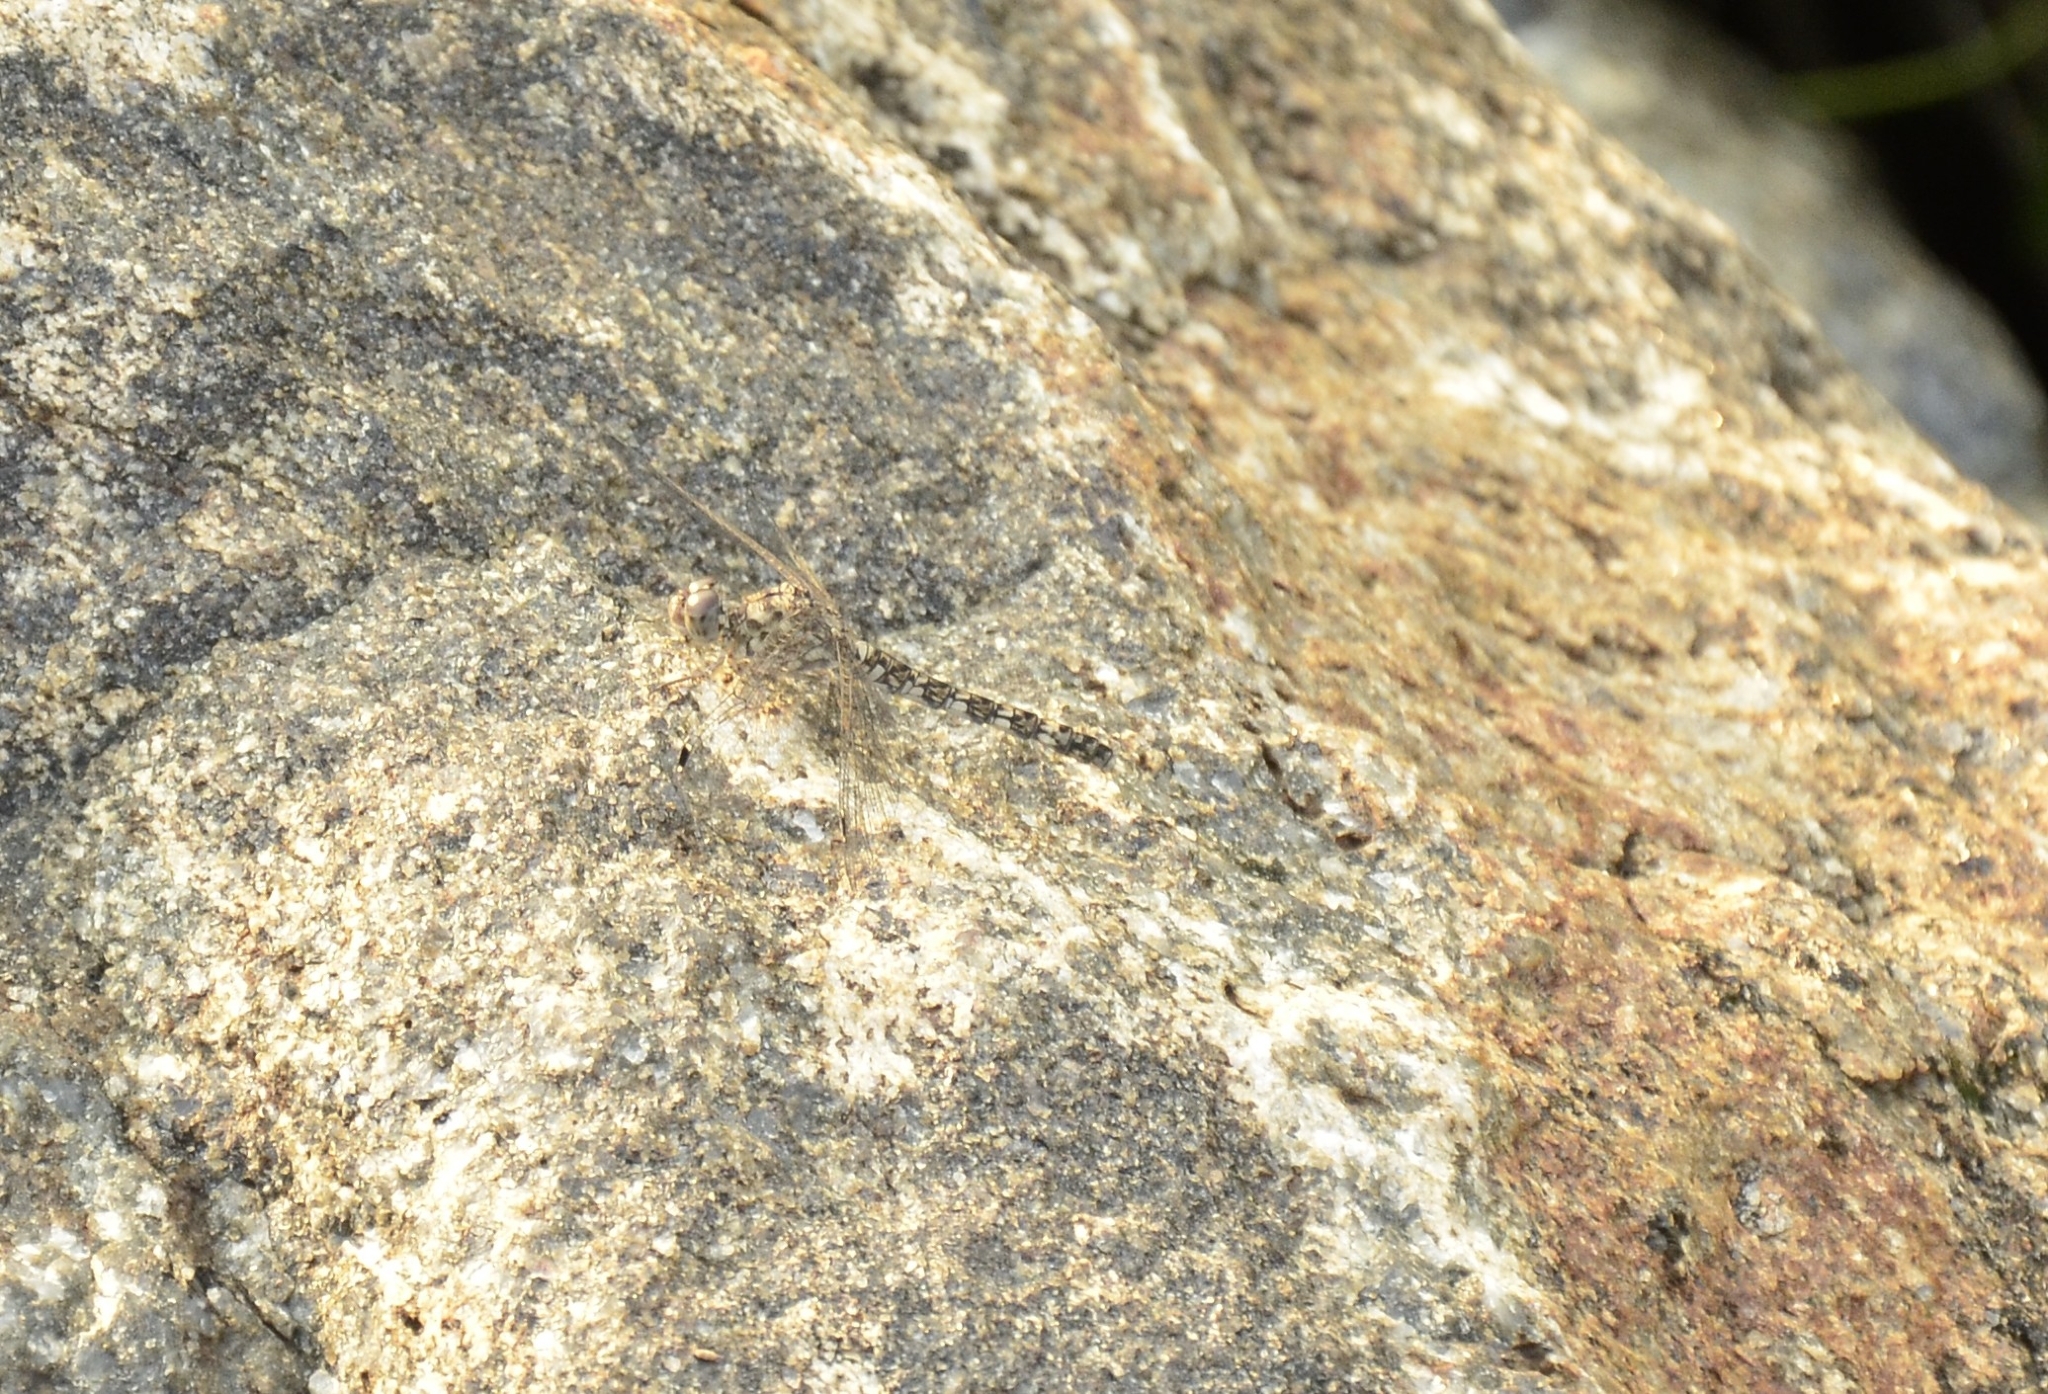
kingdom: Animalia
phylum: Arthropoda
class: Insecta
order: Odonata
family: Libellulidae
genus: Bradinopyga
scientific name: Bradinopyga geminata
